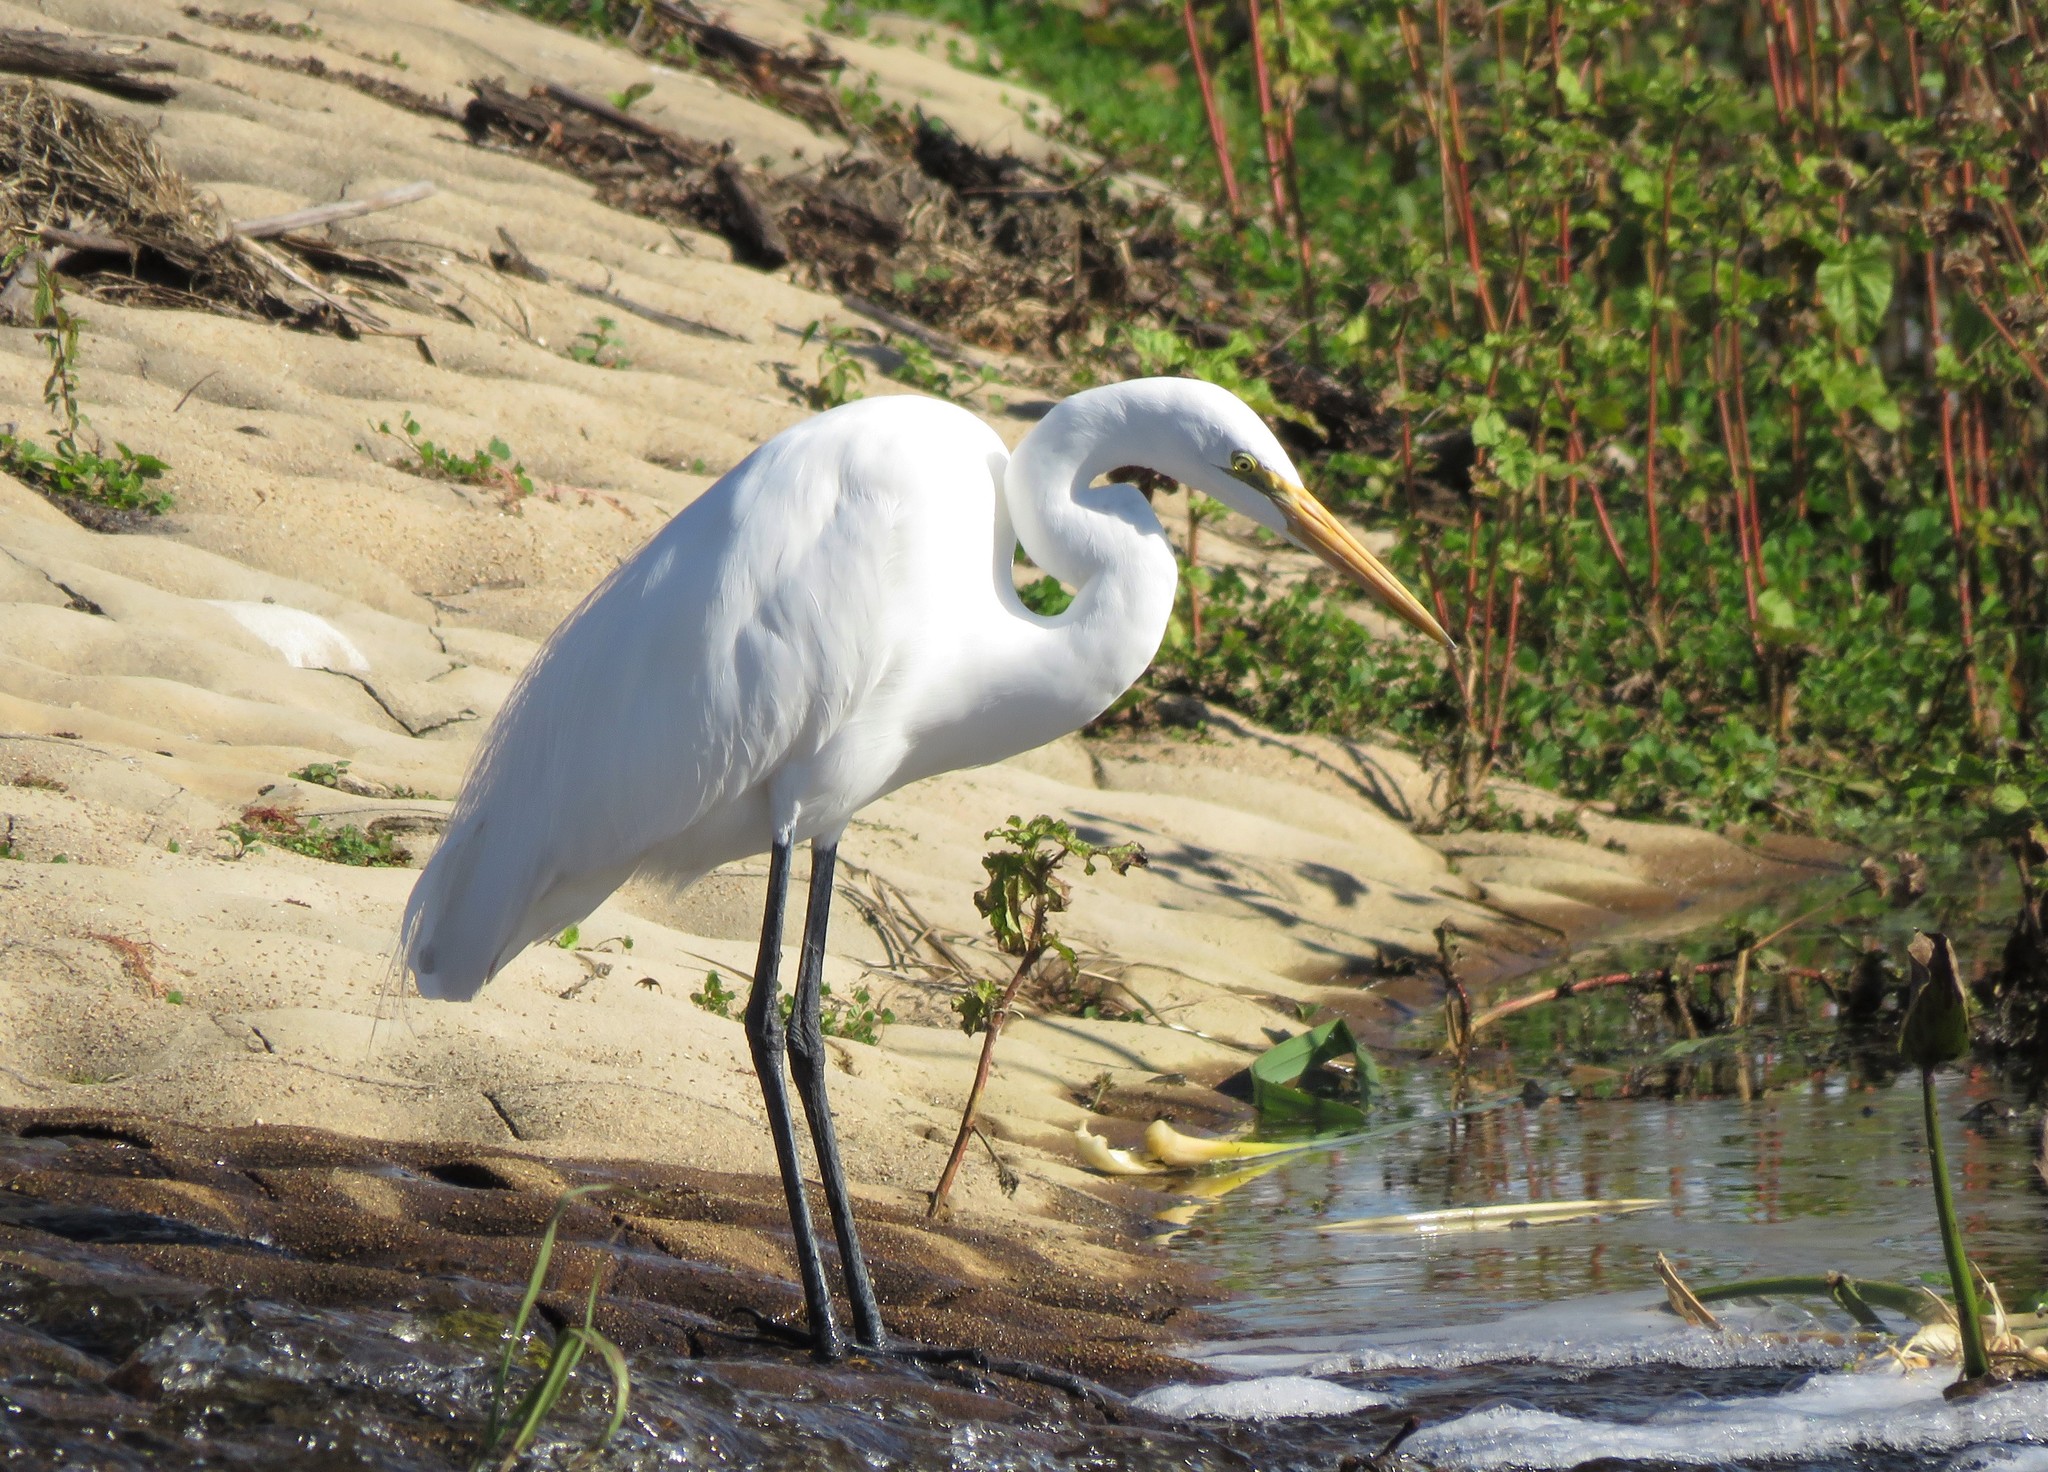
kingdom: Animalia
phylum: Chordata
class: Aves
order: Pelecaniformes
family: Ardeidae
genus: Ardea
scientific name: Ardea alba
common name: Great egret
